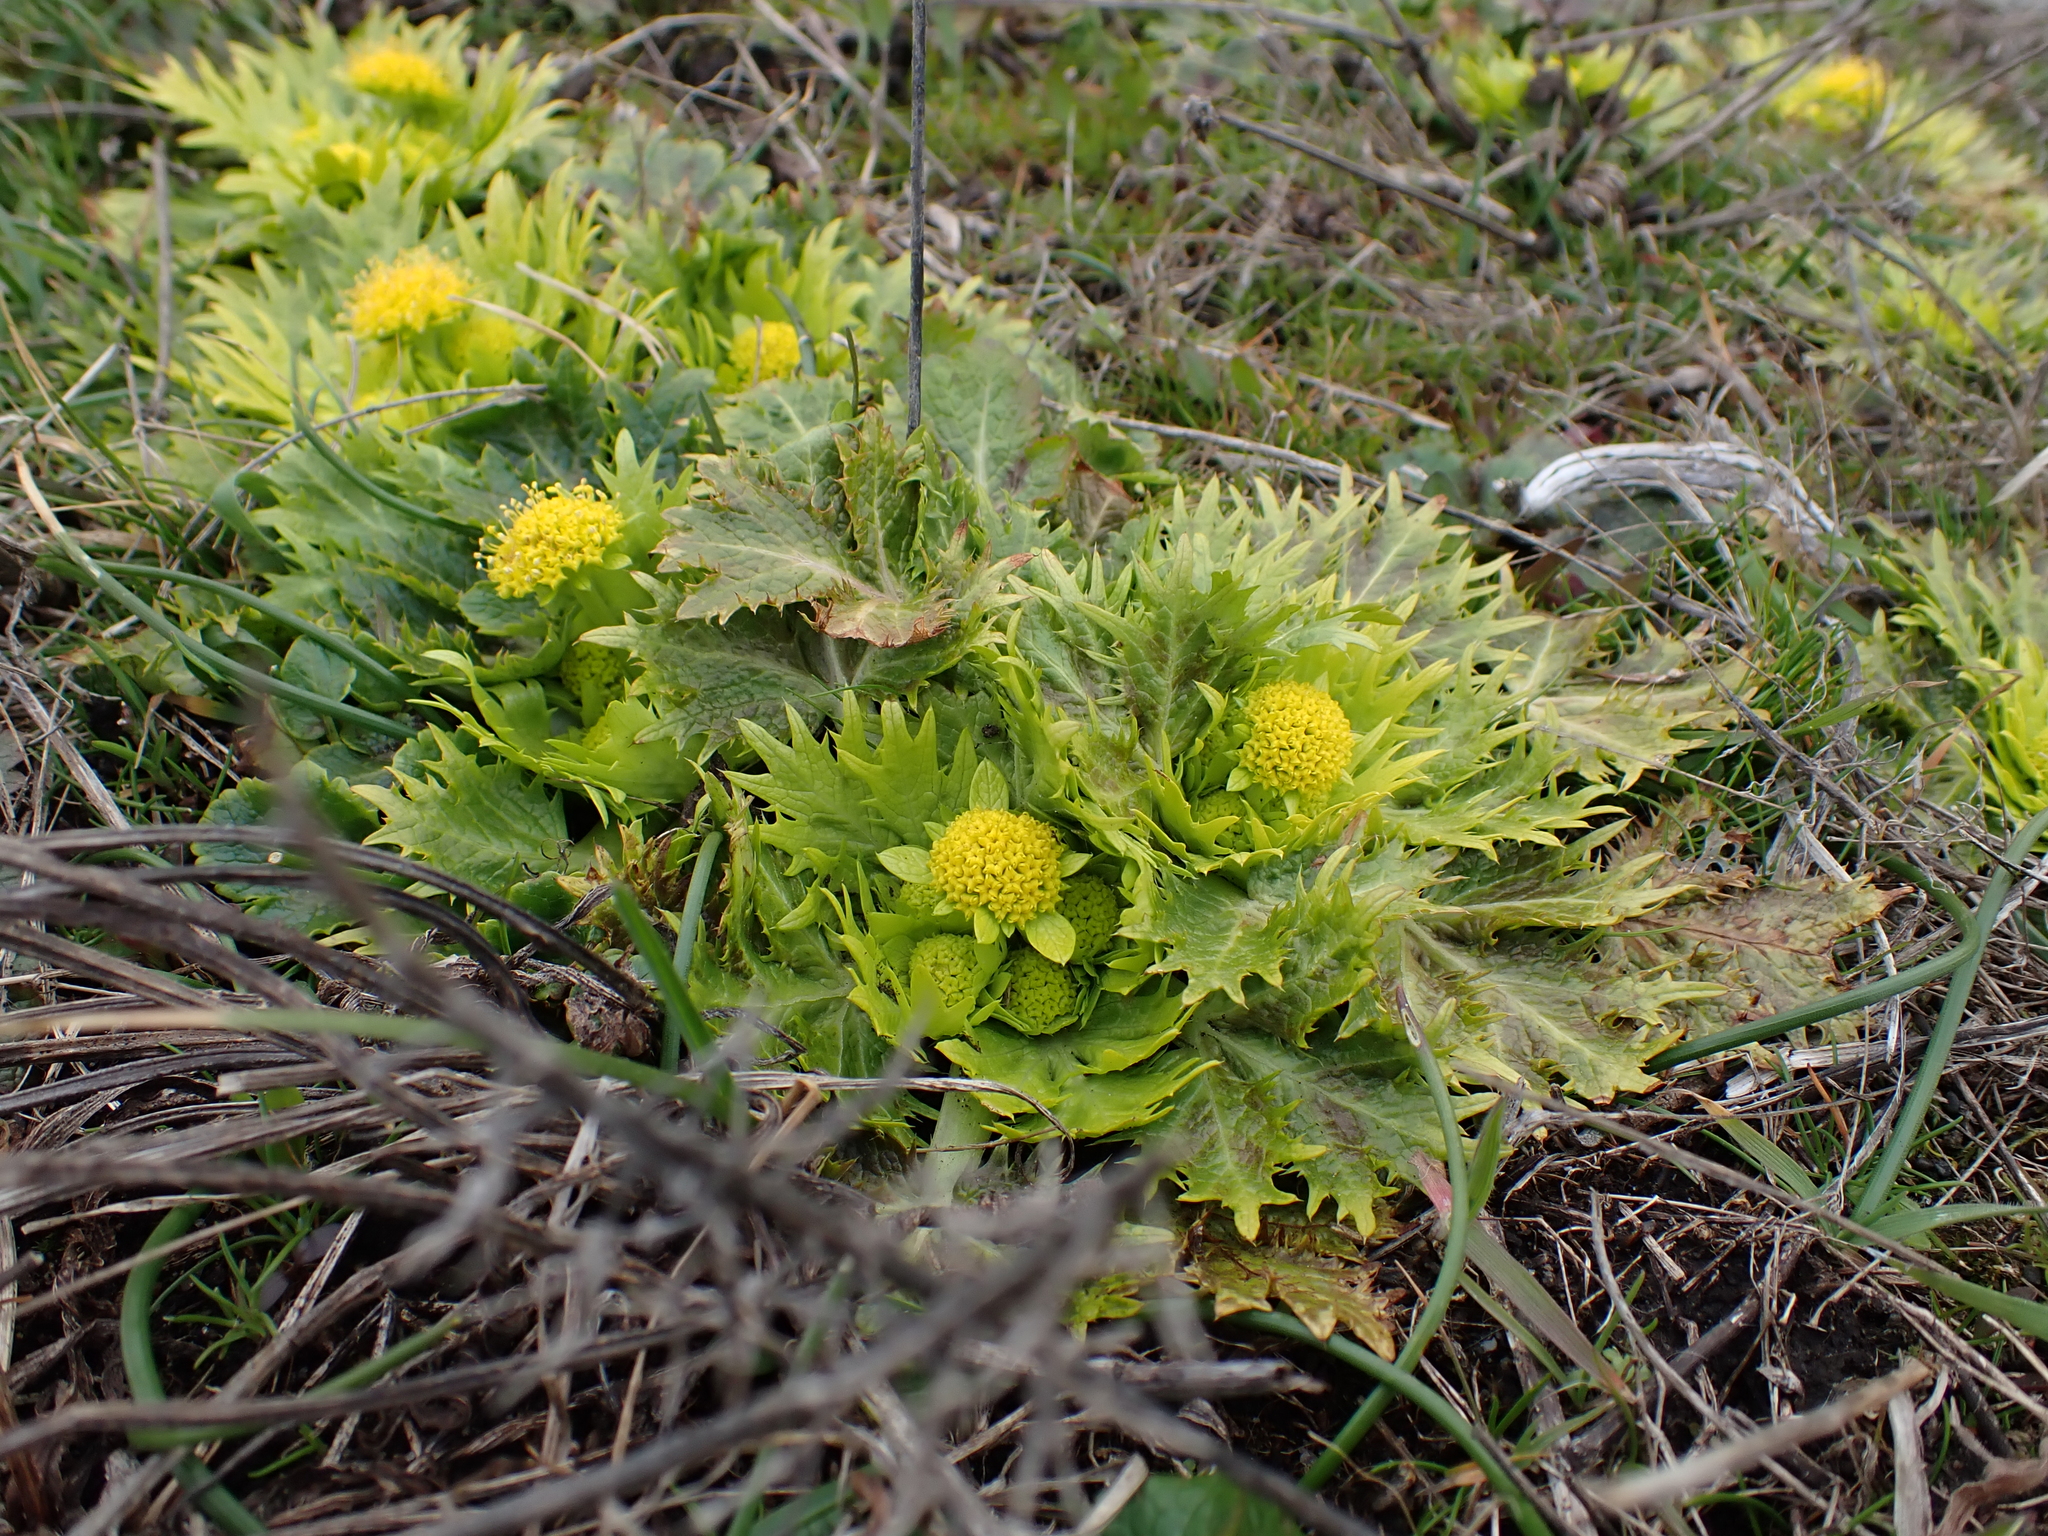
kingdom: Plantae
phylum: Tracheophyta
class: Magnoliopsida
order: Apiales
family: Apiaceae
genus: Sanicula
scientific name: Sanicula arctopoides
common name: Footsteps-of-spring
